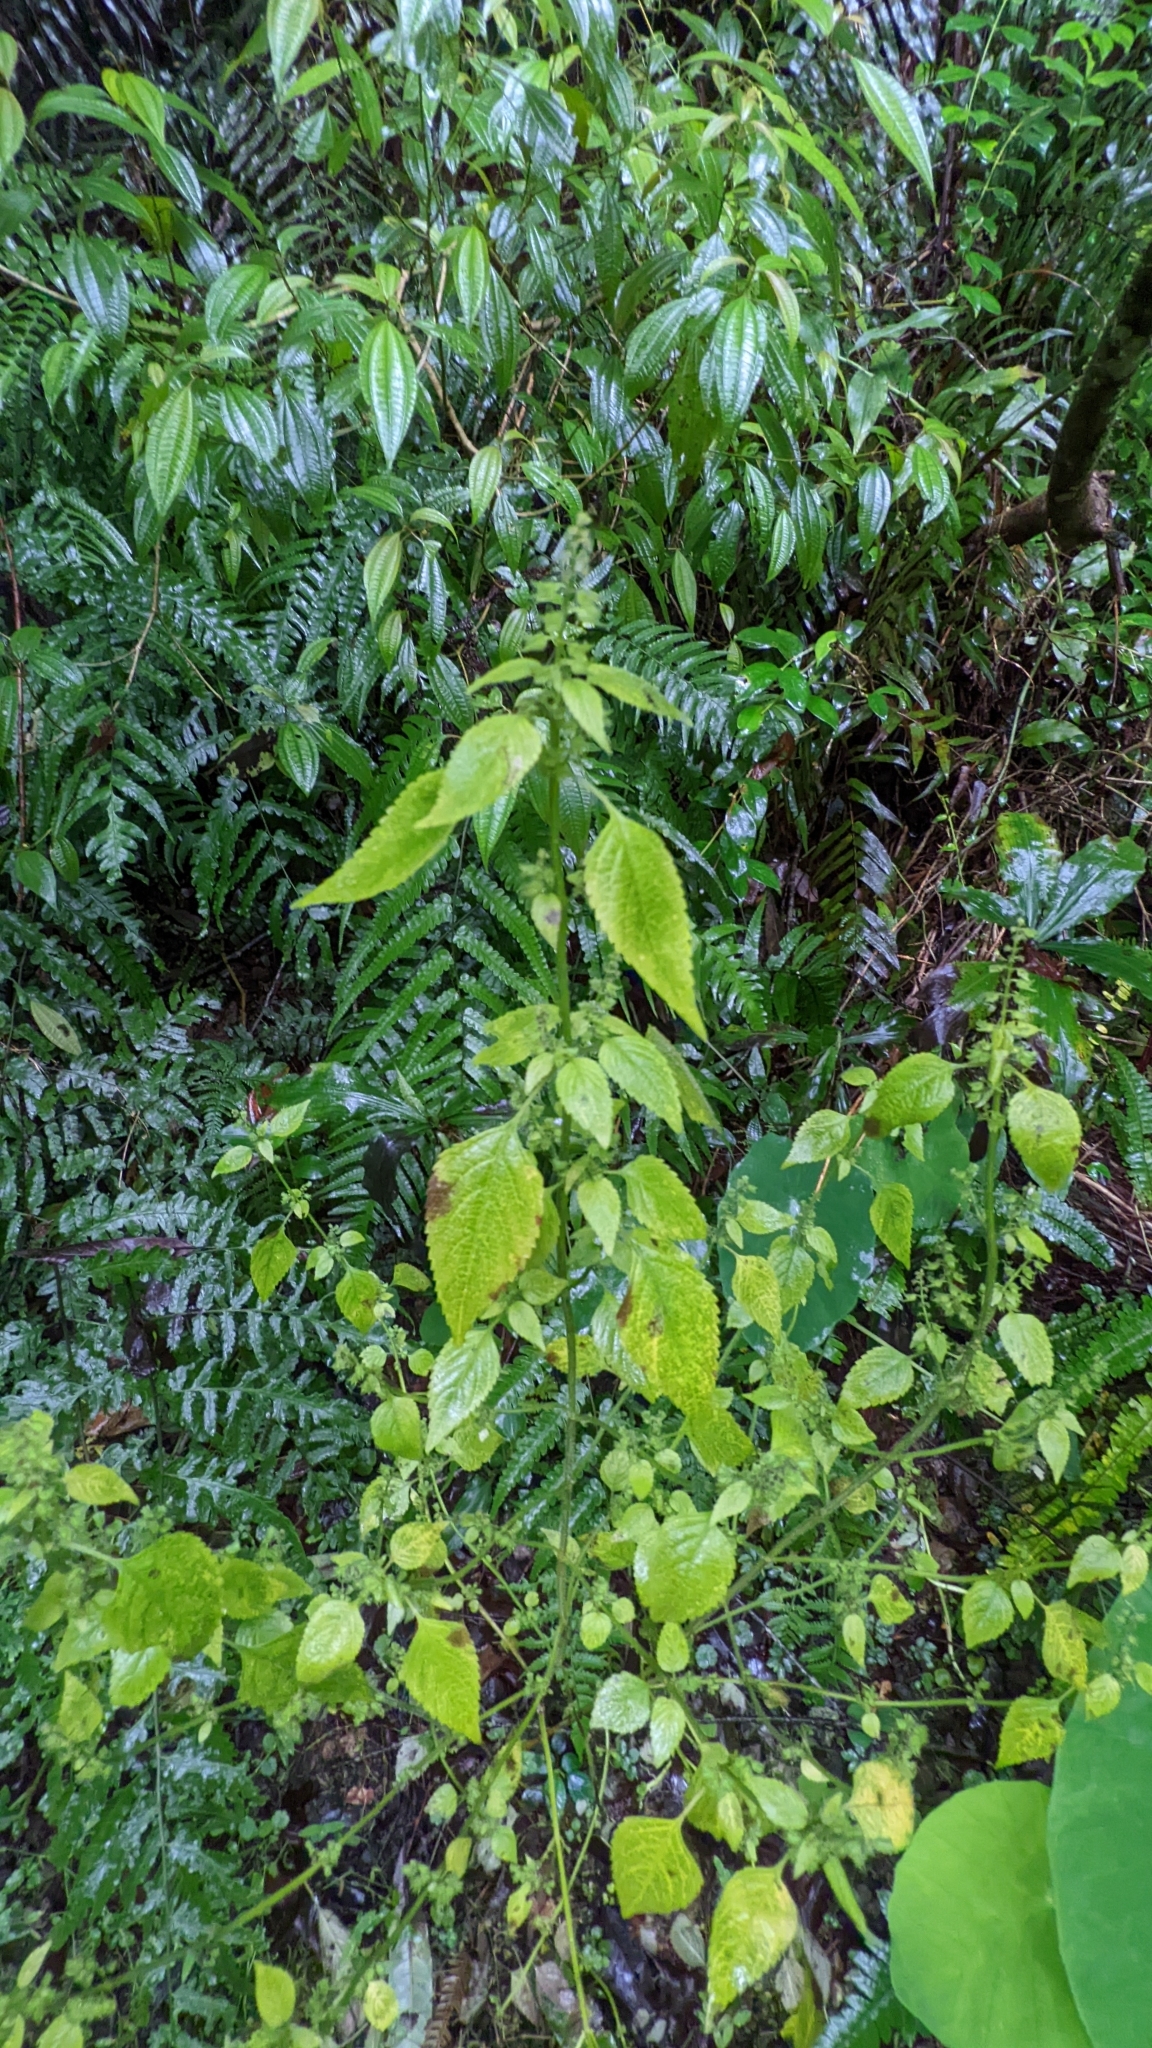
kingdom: Plantae
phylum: Tracheophyta
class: Magnoliopsida
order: Lamiales
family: Lamiaceae
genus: Mosla
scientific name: Mosla cavaleriei
